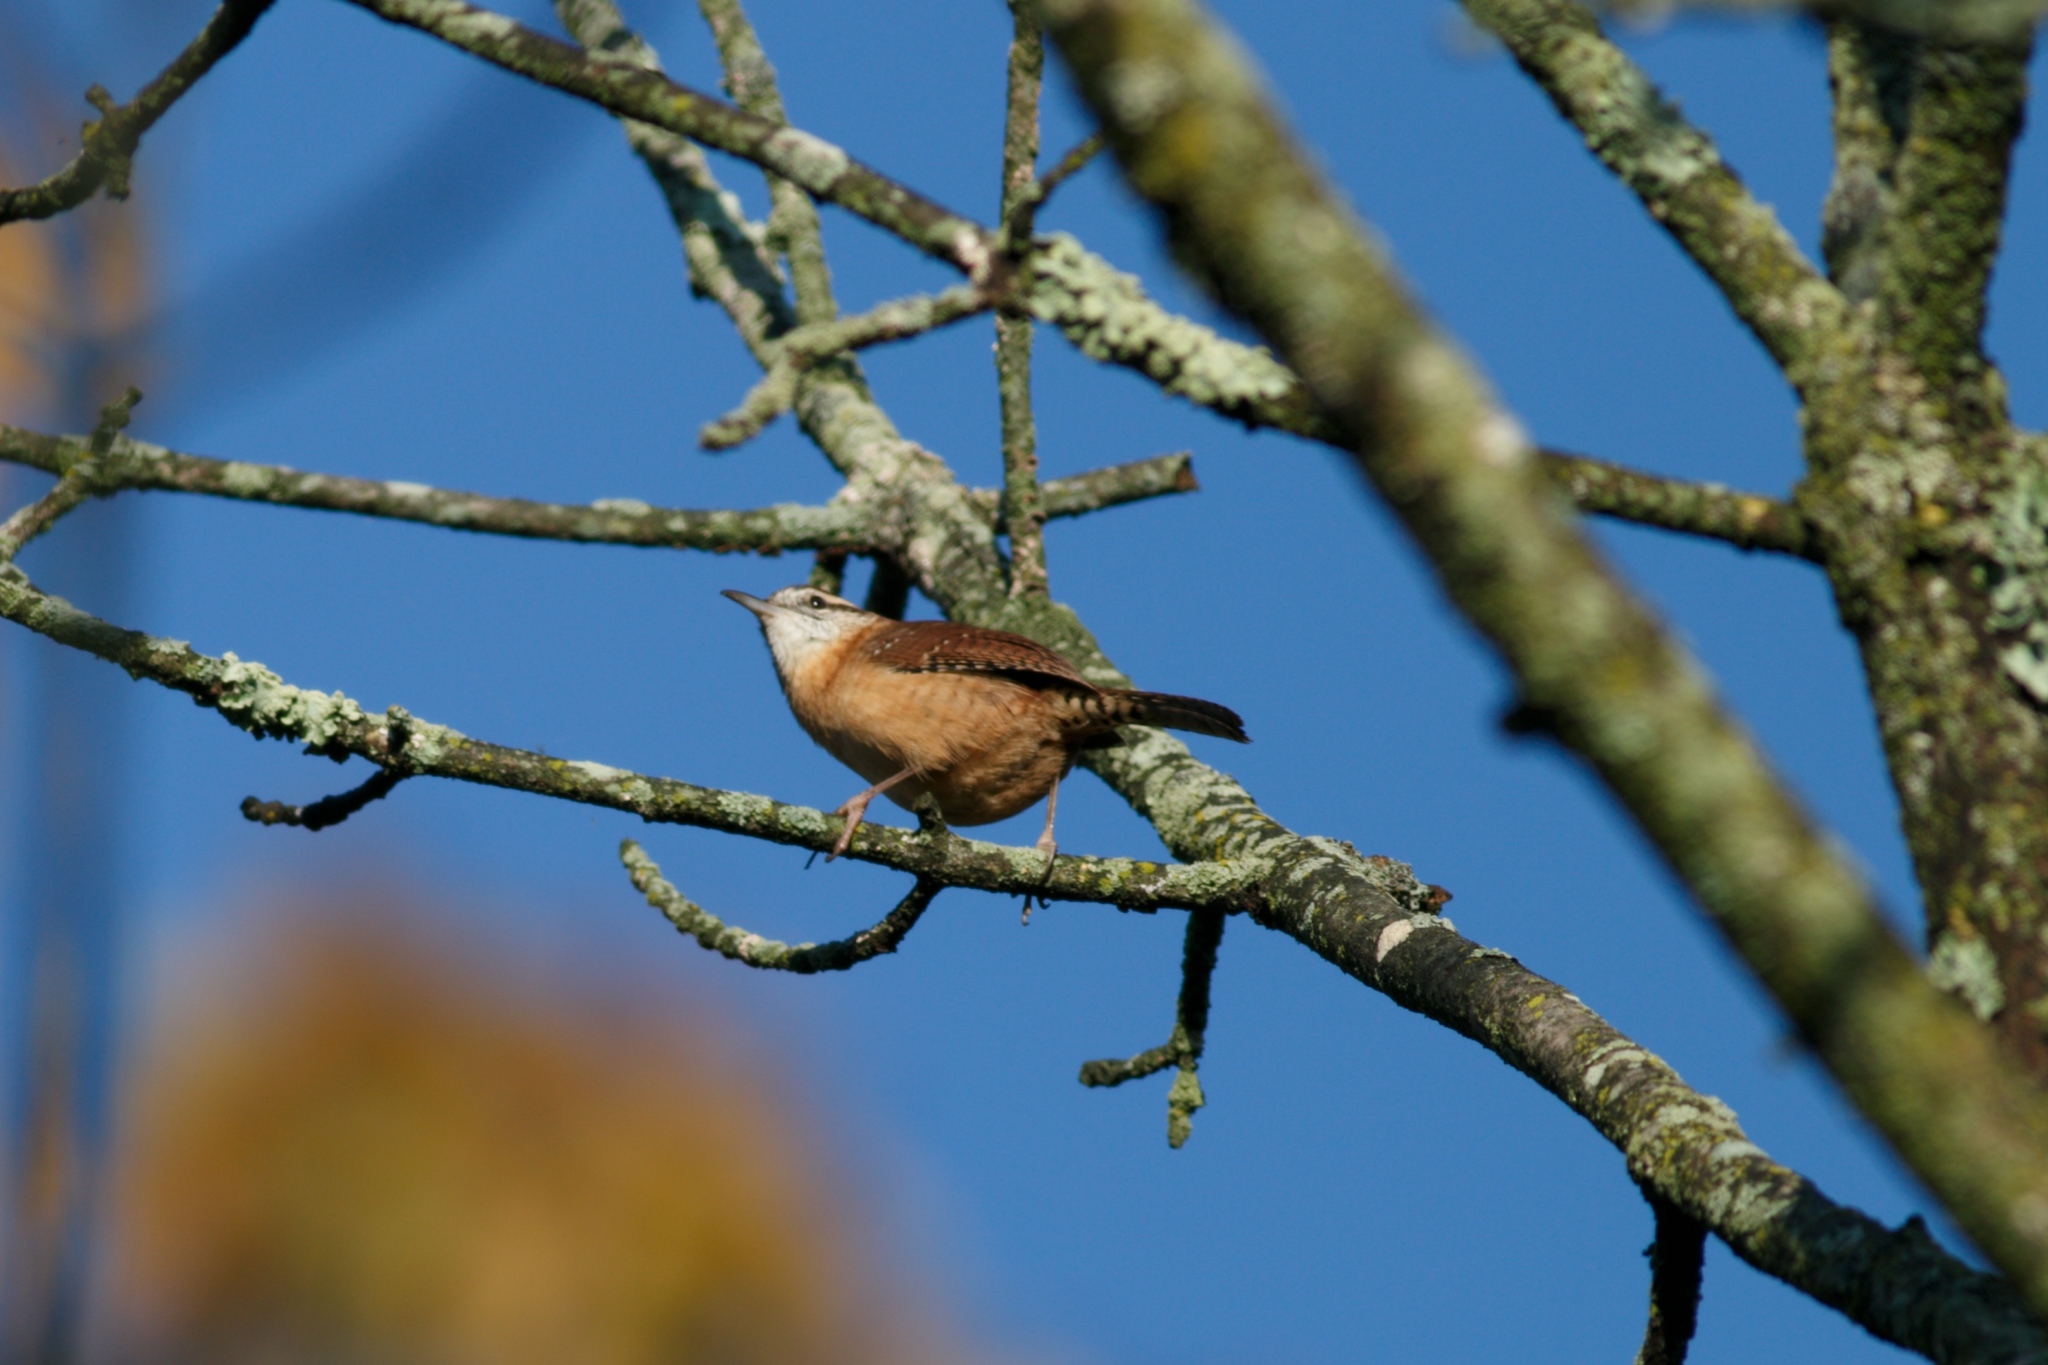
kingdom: Animalia
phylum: Chordata
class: Aves
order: Passeriformes
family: Troglodytidae
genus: Thryothorus
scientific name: Thryothorus ludovicianus
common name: Carolina wren
